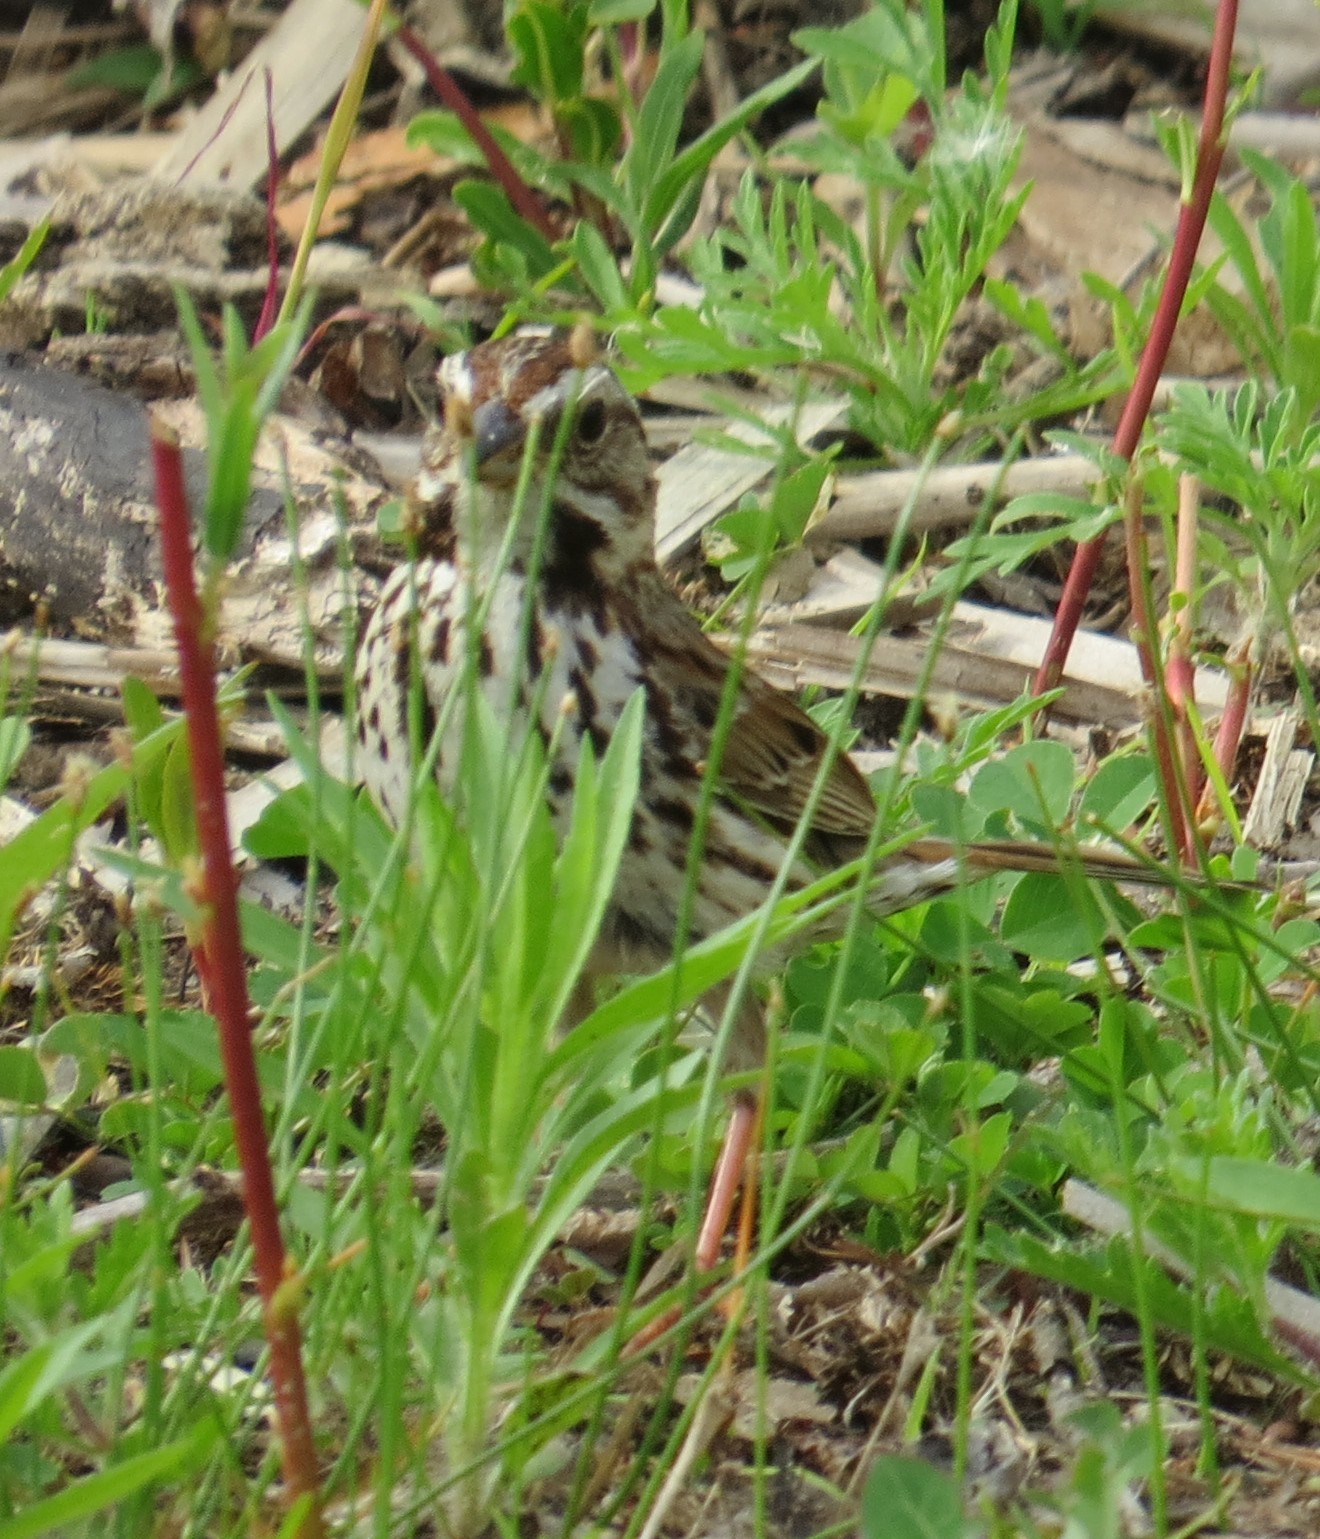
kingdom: Animalia
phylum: Chordata
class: Aves
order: Passeriformes
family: Passerellidae
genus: Melospiza
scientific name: Melospiza melodia
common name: Song sparrow
